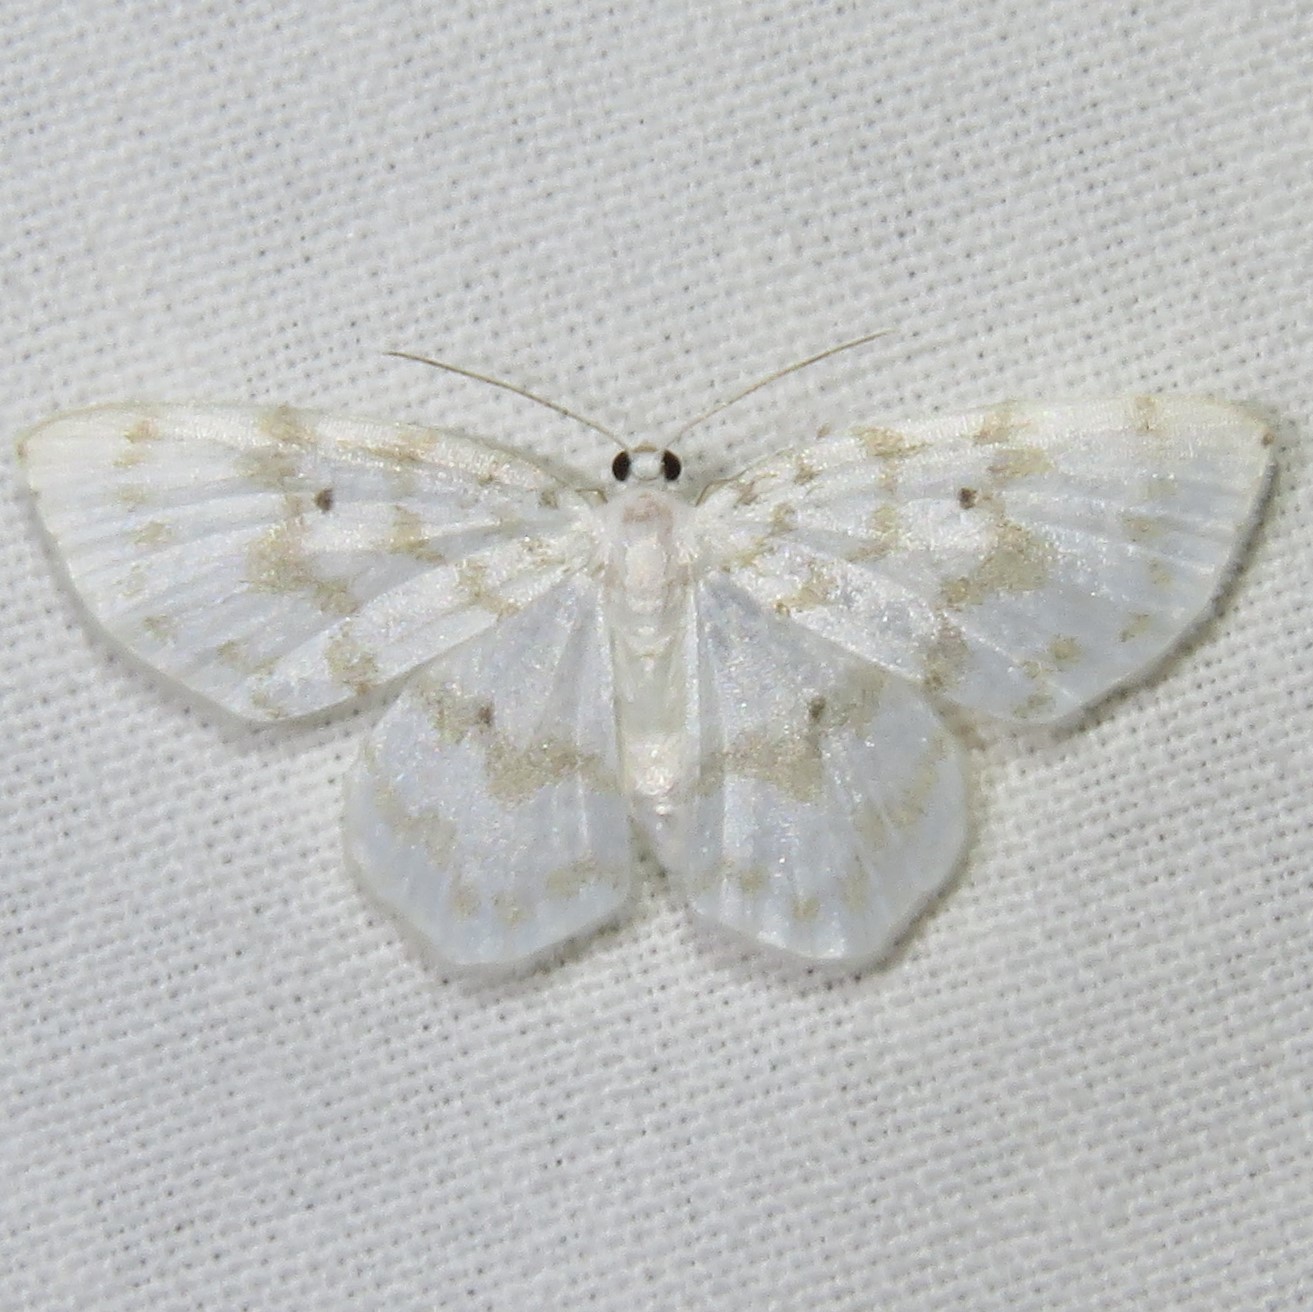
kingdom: Animalia
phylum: Arthropoda
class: Insecta
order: Lepidoptera
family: Geometridae
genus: Hydrelia
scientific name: Hydrelia albifera
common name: Fragile white carpet
